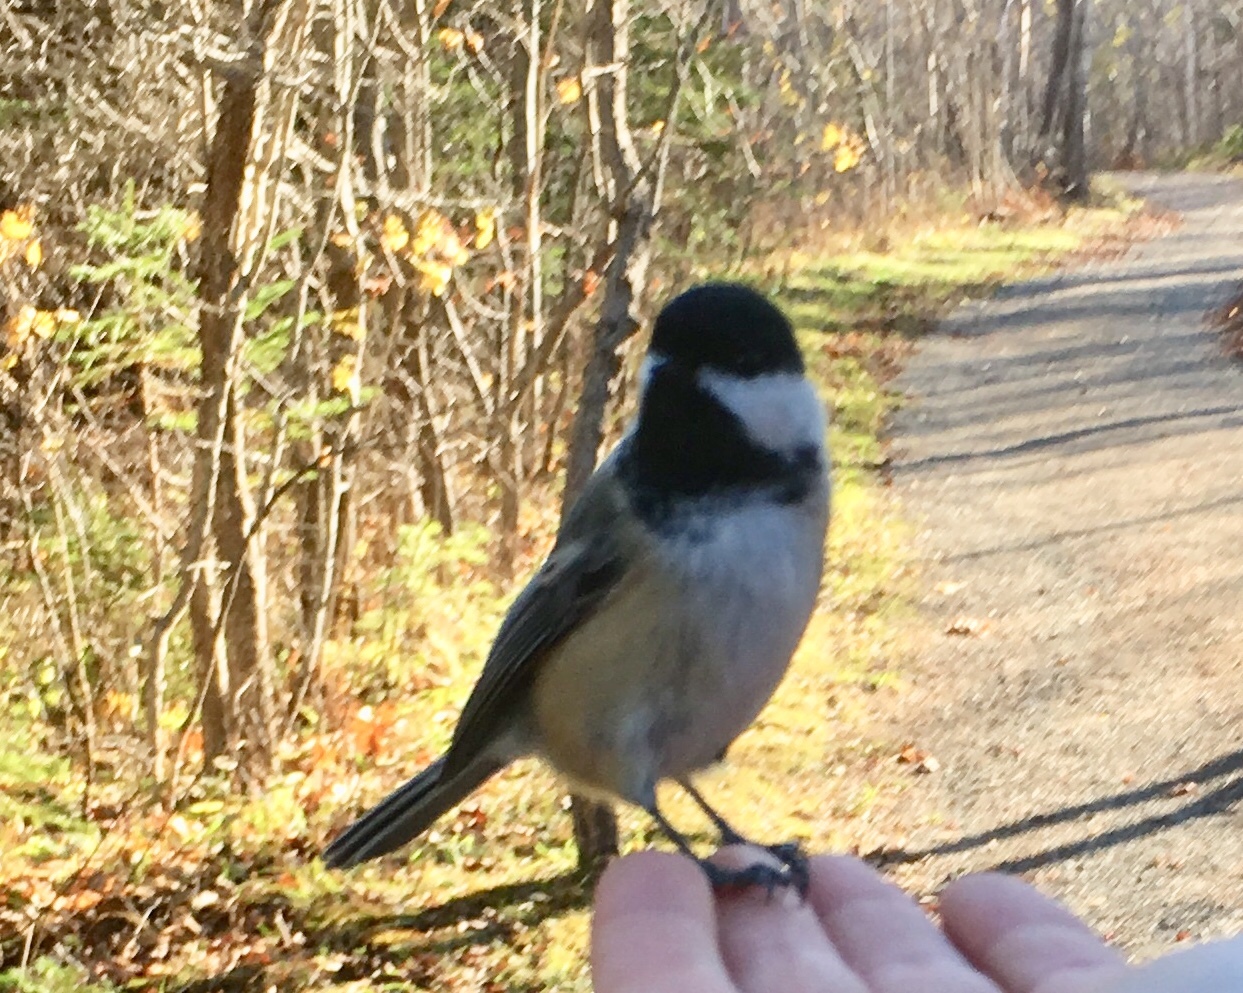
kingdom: Animalia
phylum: Chordata
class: Aves
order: Passeriformes
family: Paridae
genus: Poecile
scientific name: Poecile atricapillus
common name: Black-capped chickadee
